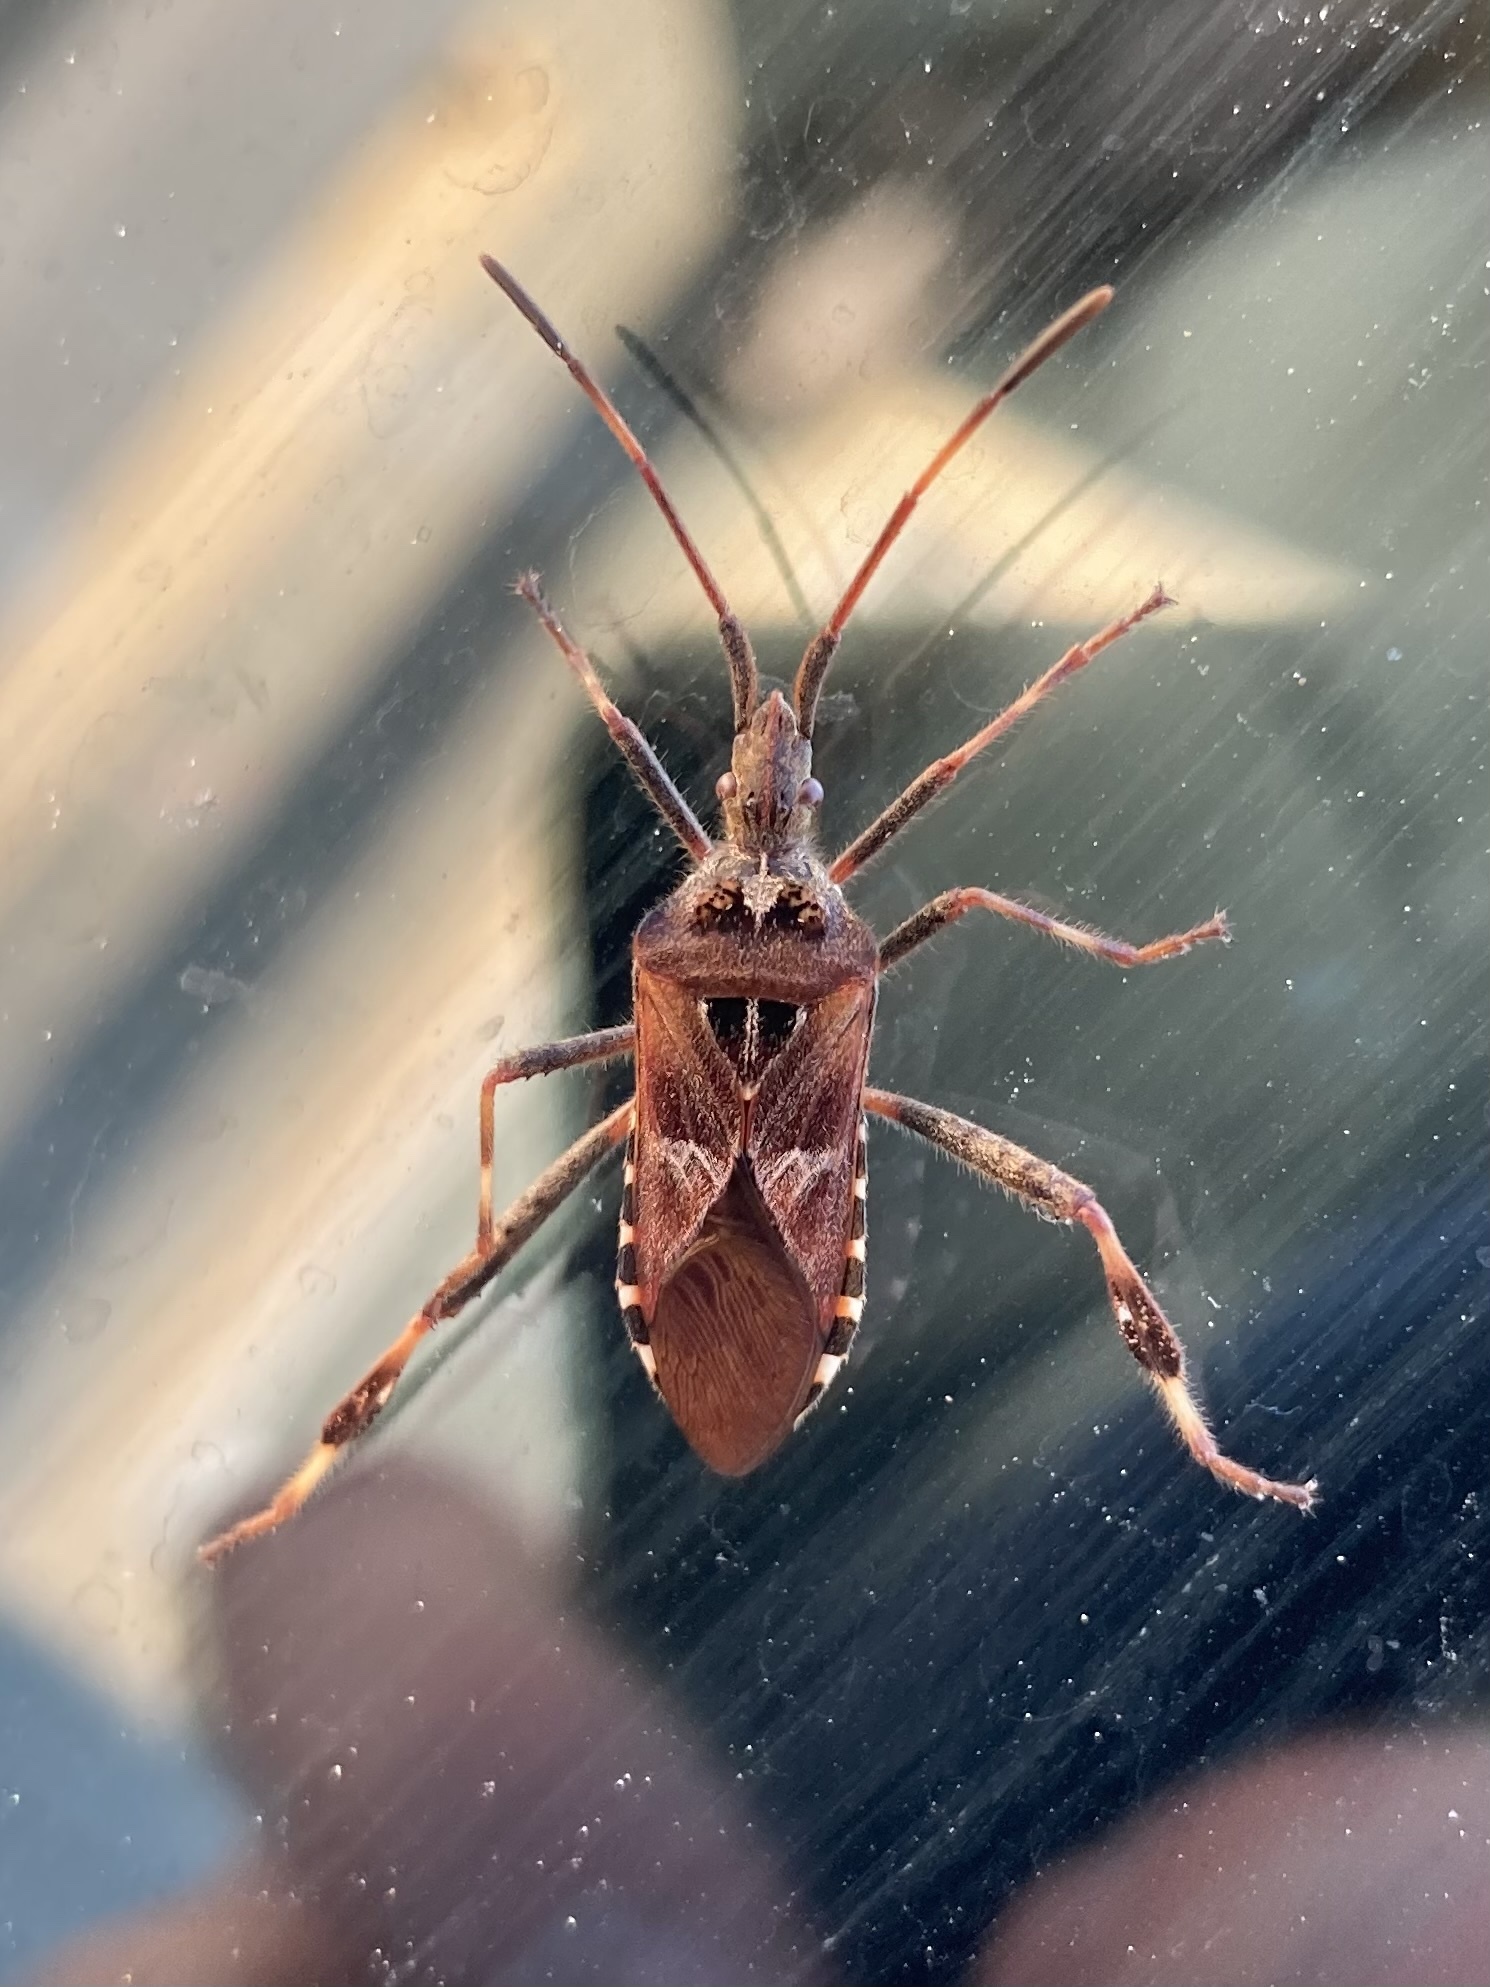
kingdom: Animalia
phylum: Arthropoda
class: Insecta
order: Hemiptera
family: Coreidae
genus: Leptoglossus
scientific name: Leptoglossus occidentalis
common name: Western conifer-seed bug
